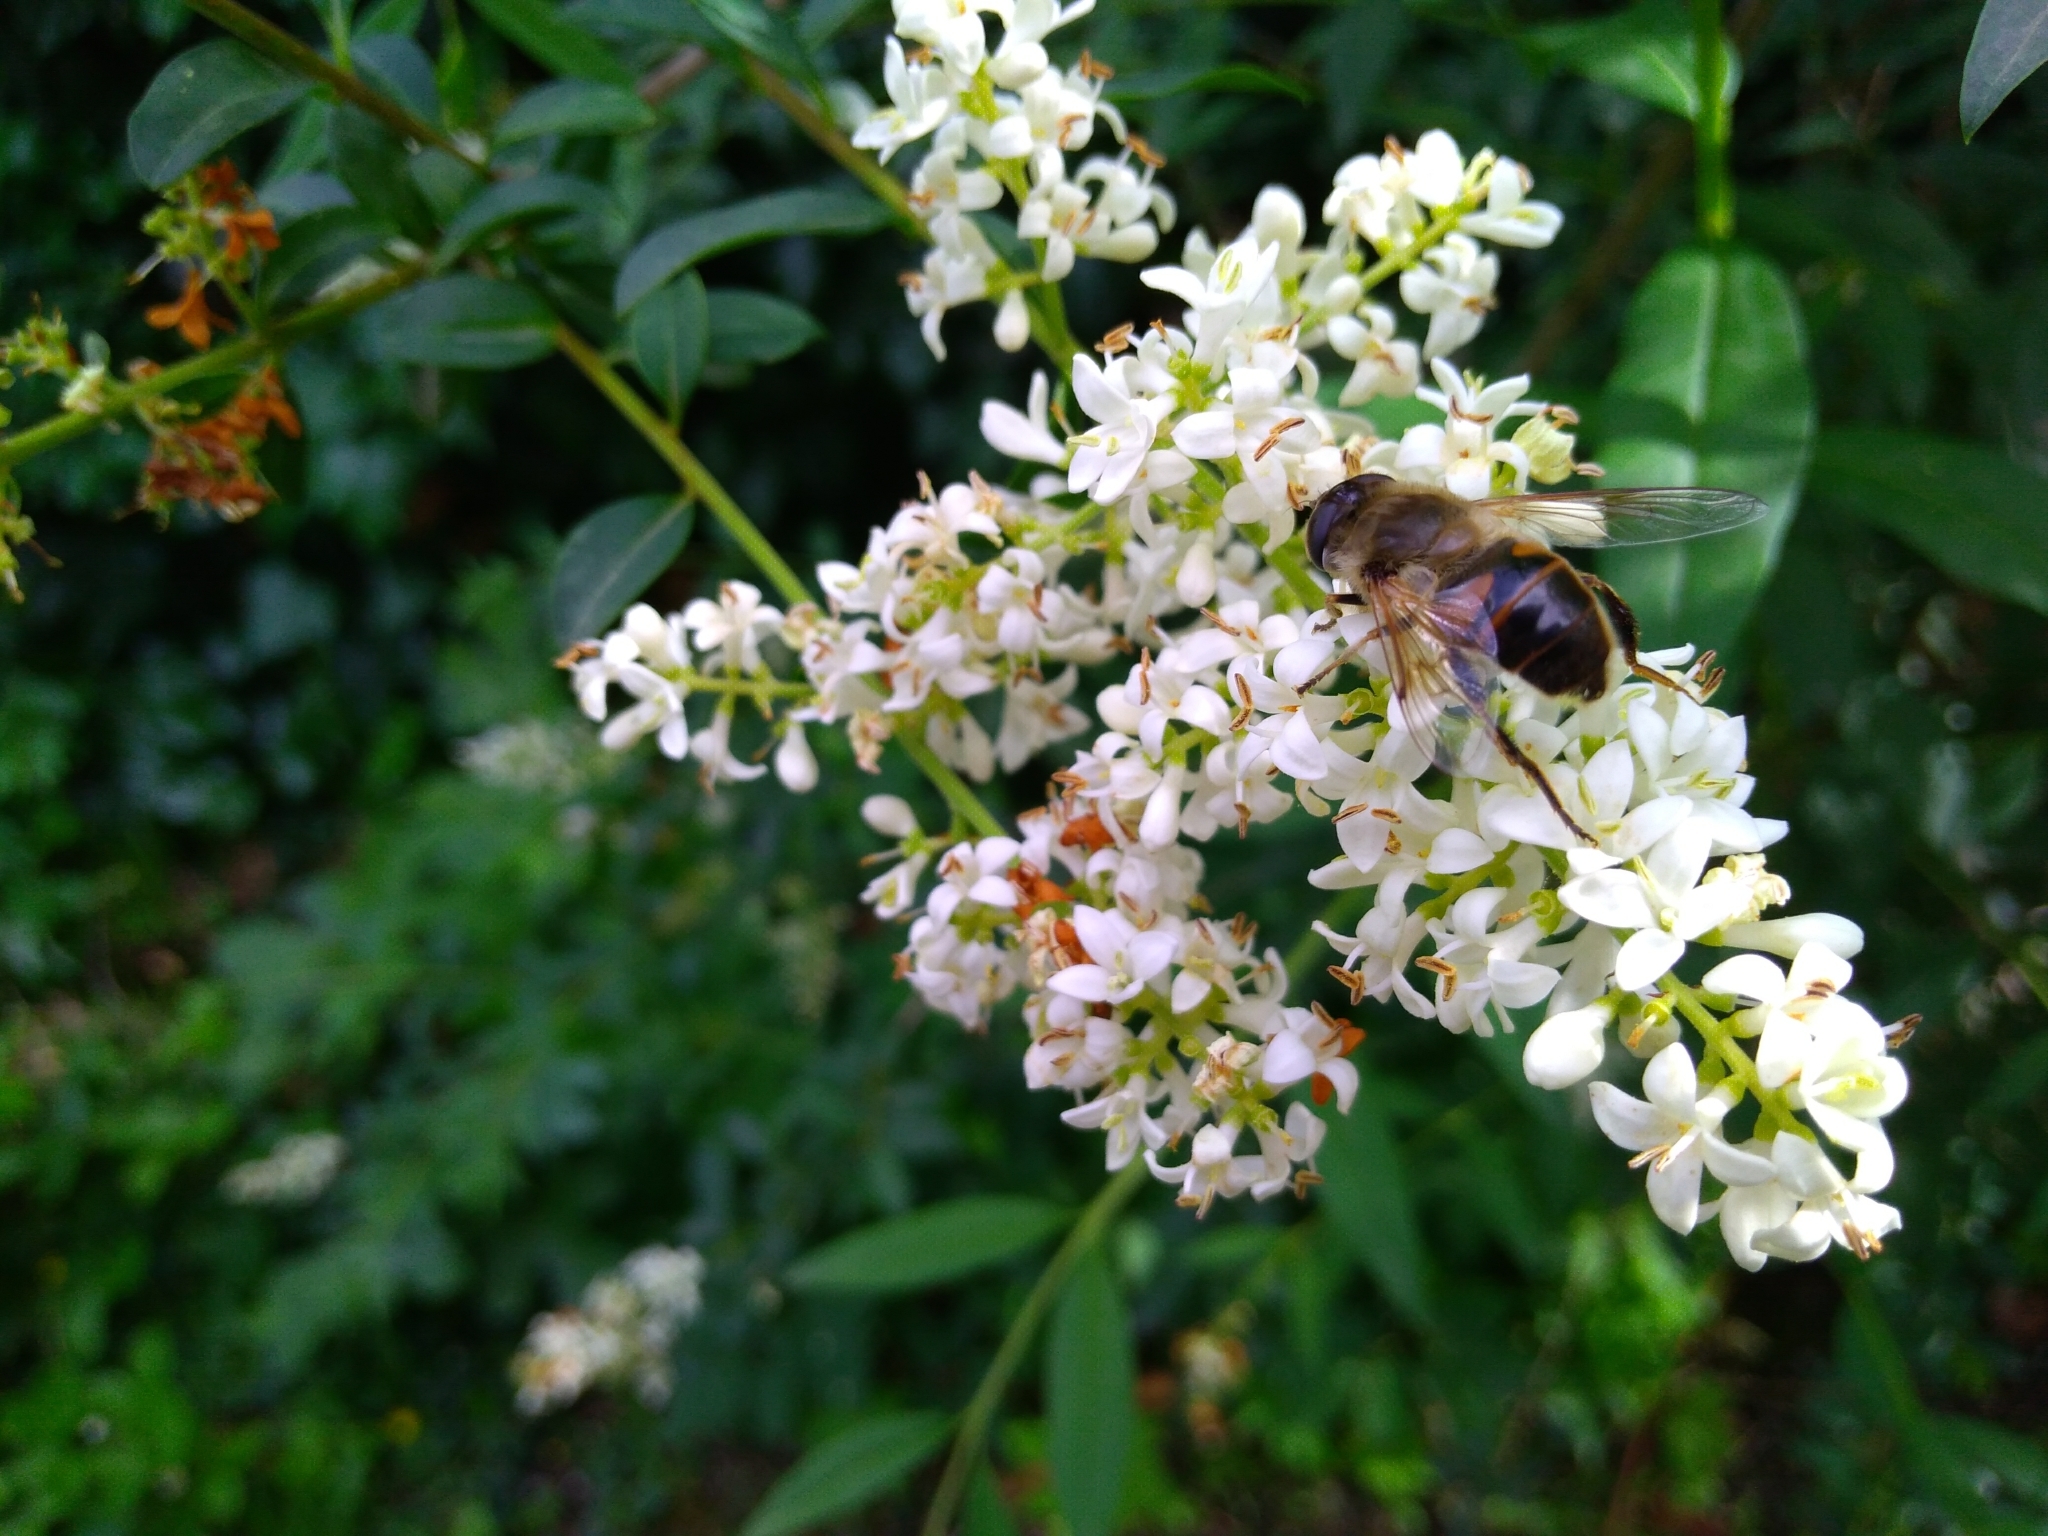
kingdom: Animalia
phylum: Arthropoda
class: Insecta
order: Diptera
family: Syrphidae
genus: Eristalis
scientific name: Eristalis tenax
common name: Drone fly
